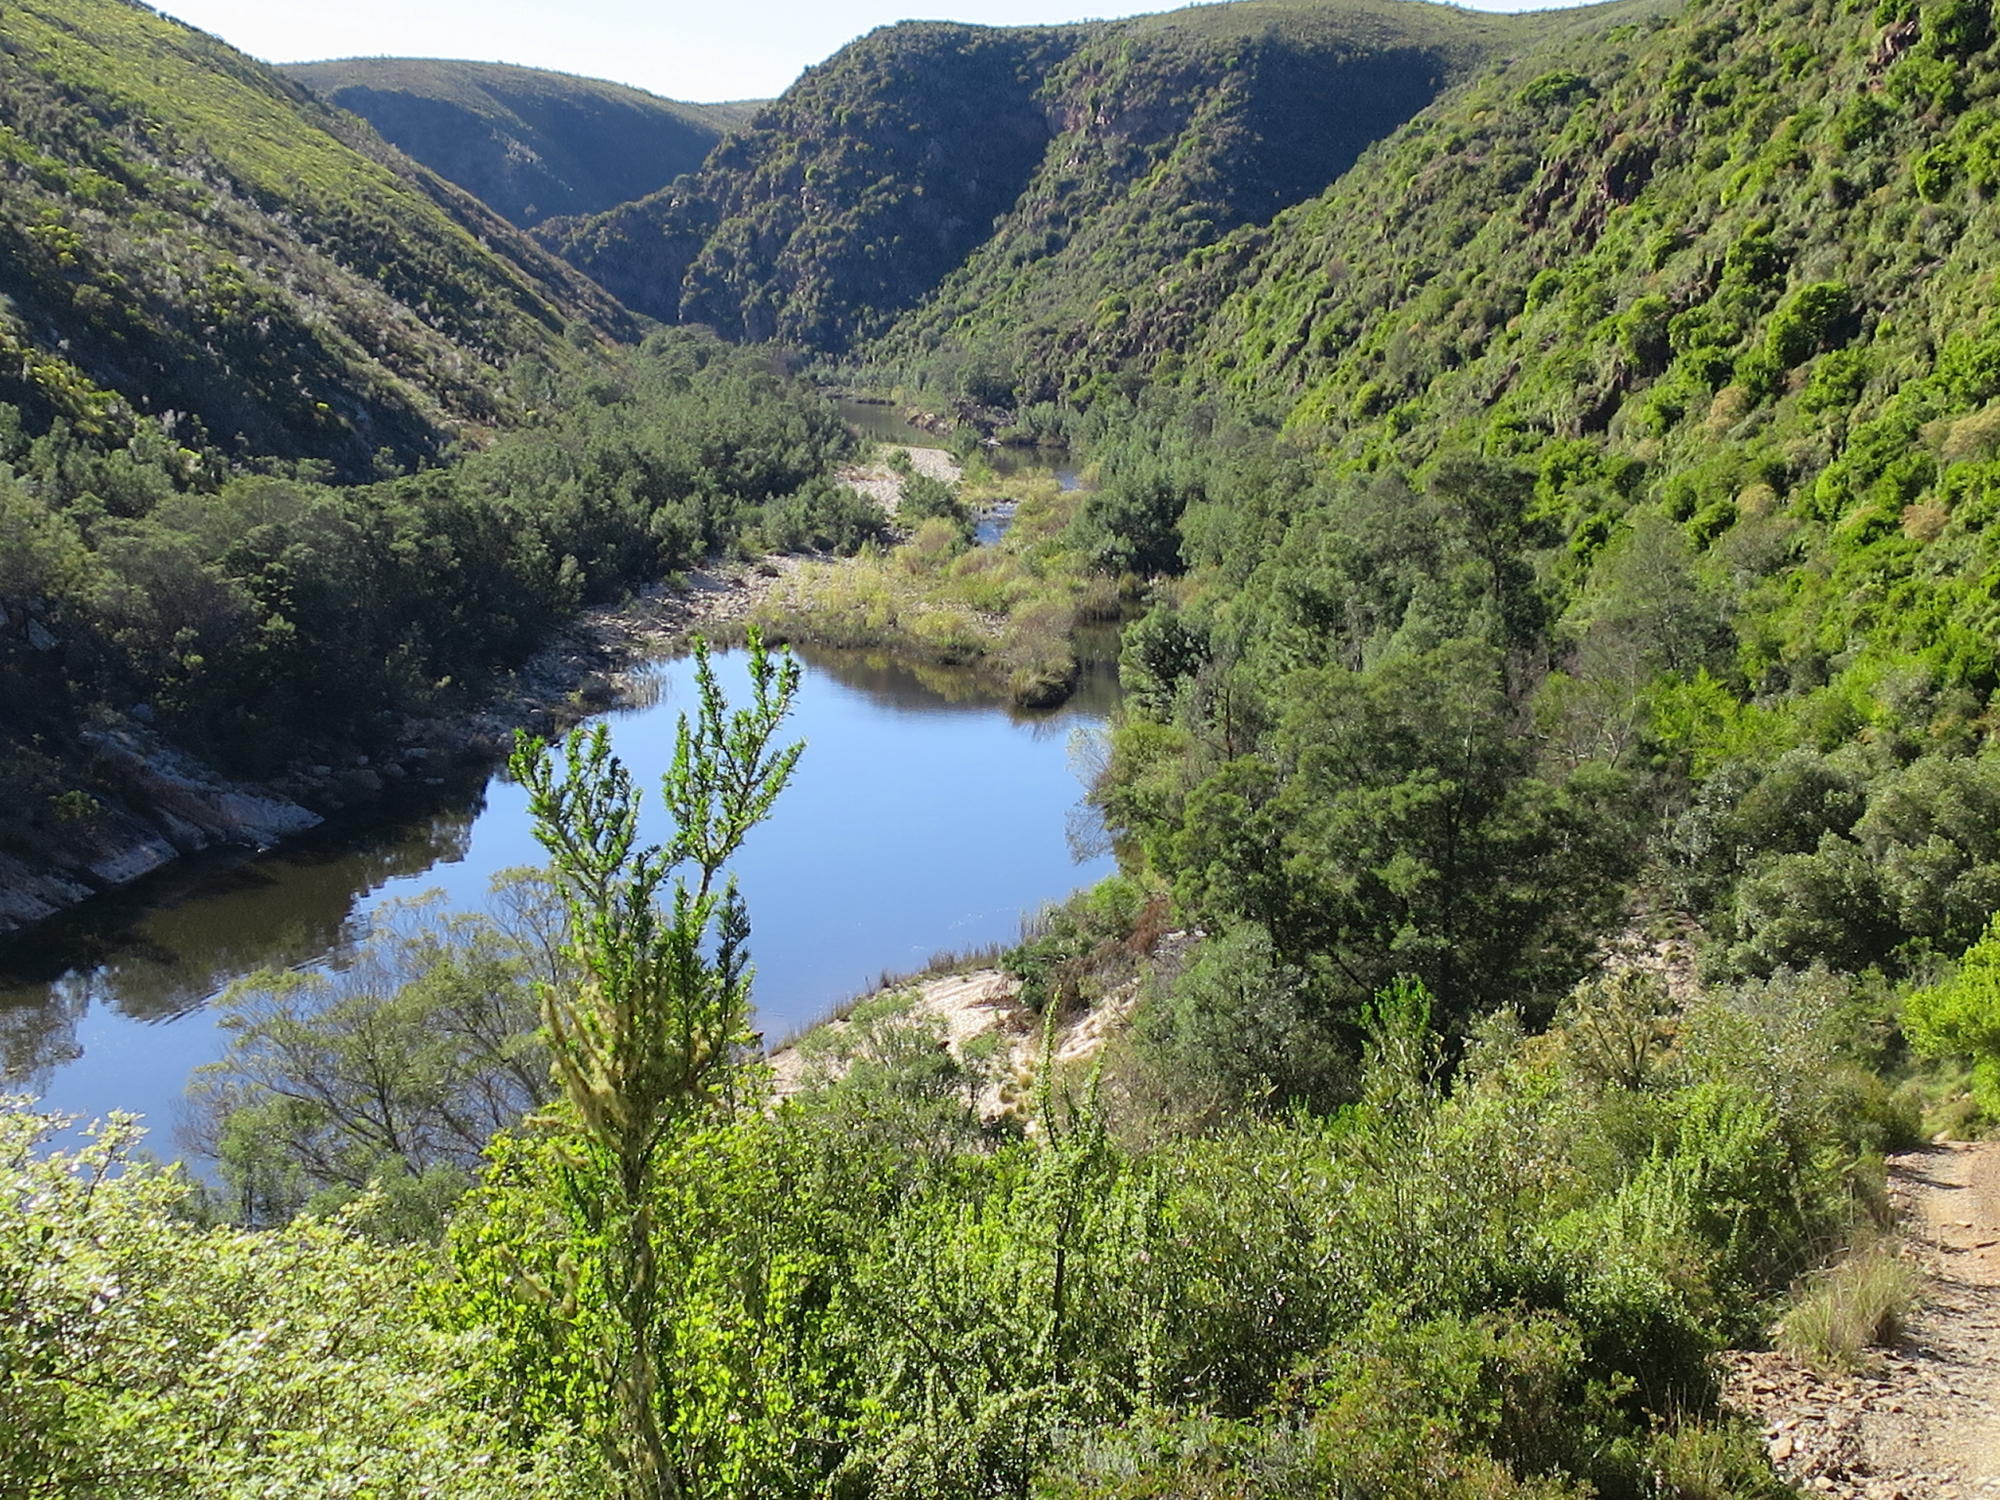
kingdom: Plantae
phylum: Tracheophyta
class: Magnoliopsida
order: Sapindales
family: Meliaceae
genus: Nymania
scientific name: Nymania capensis
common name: Chinese lantern tree
